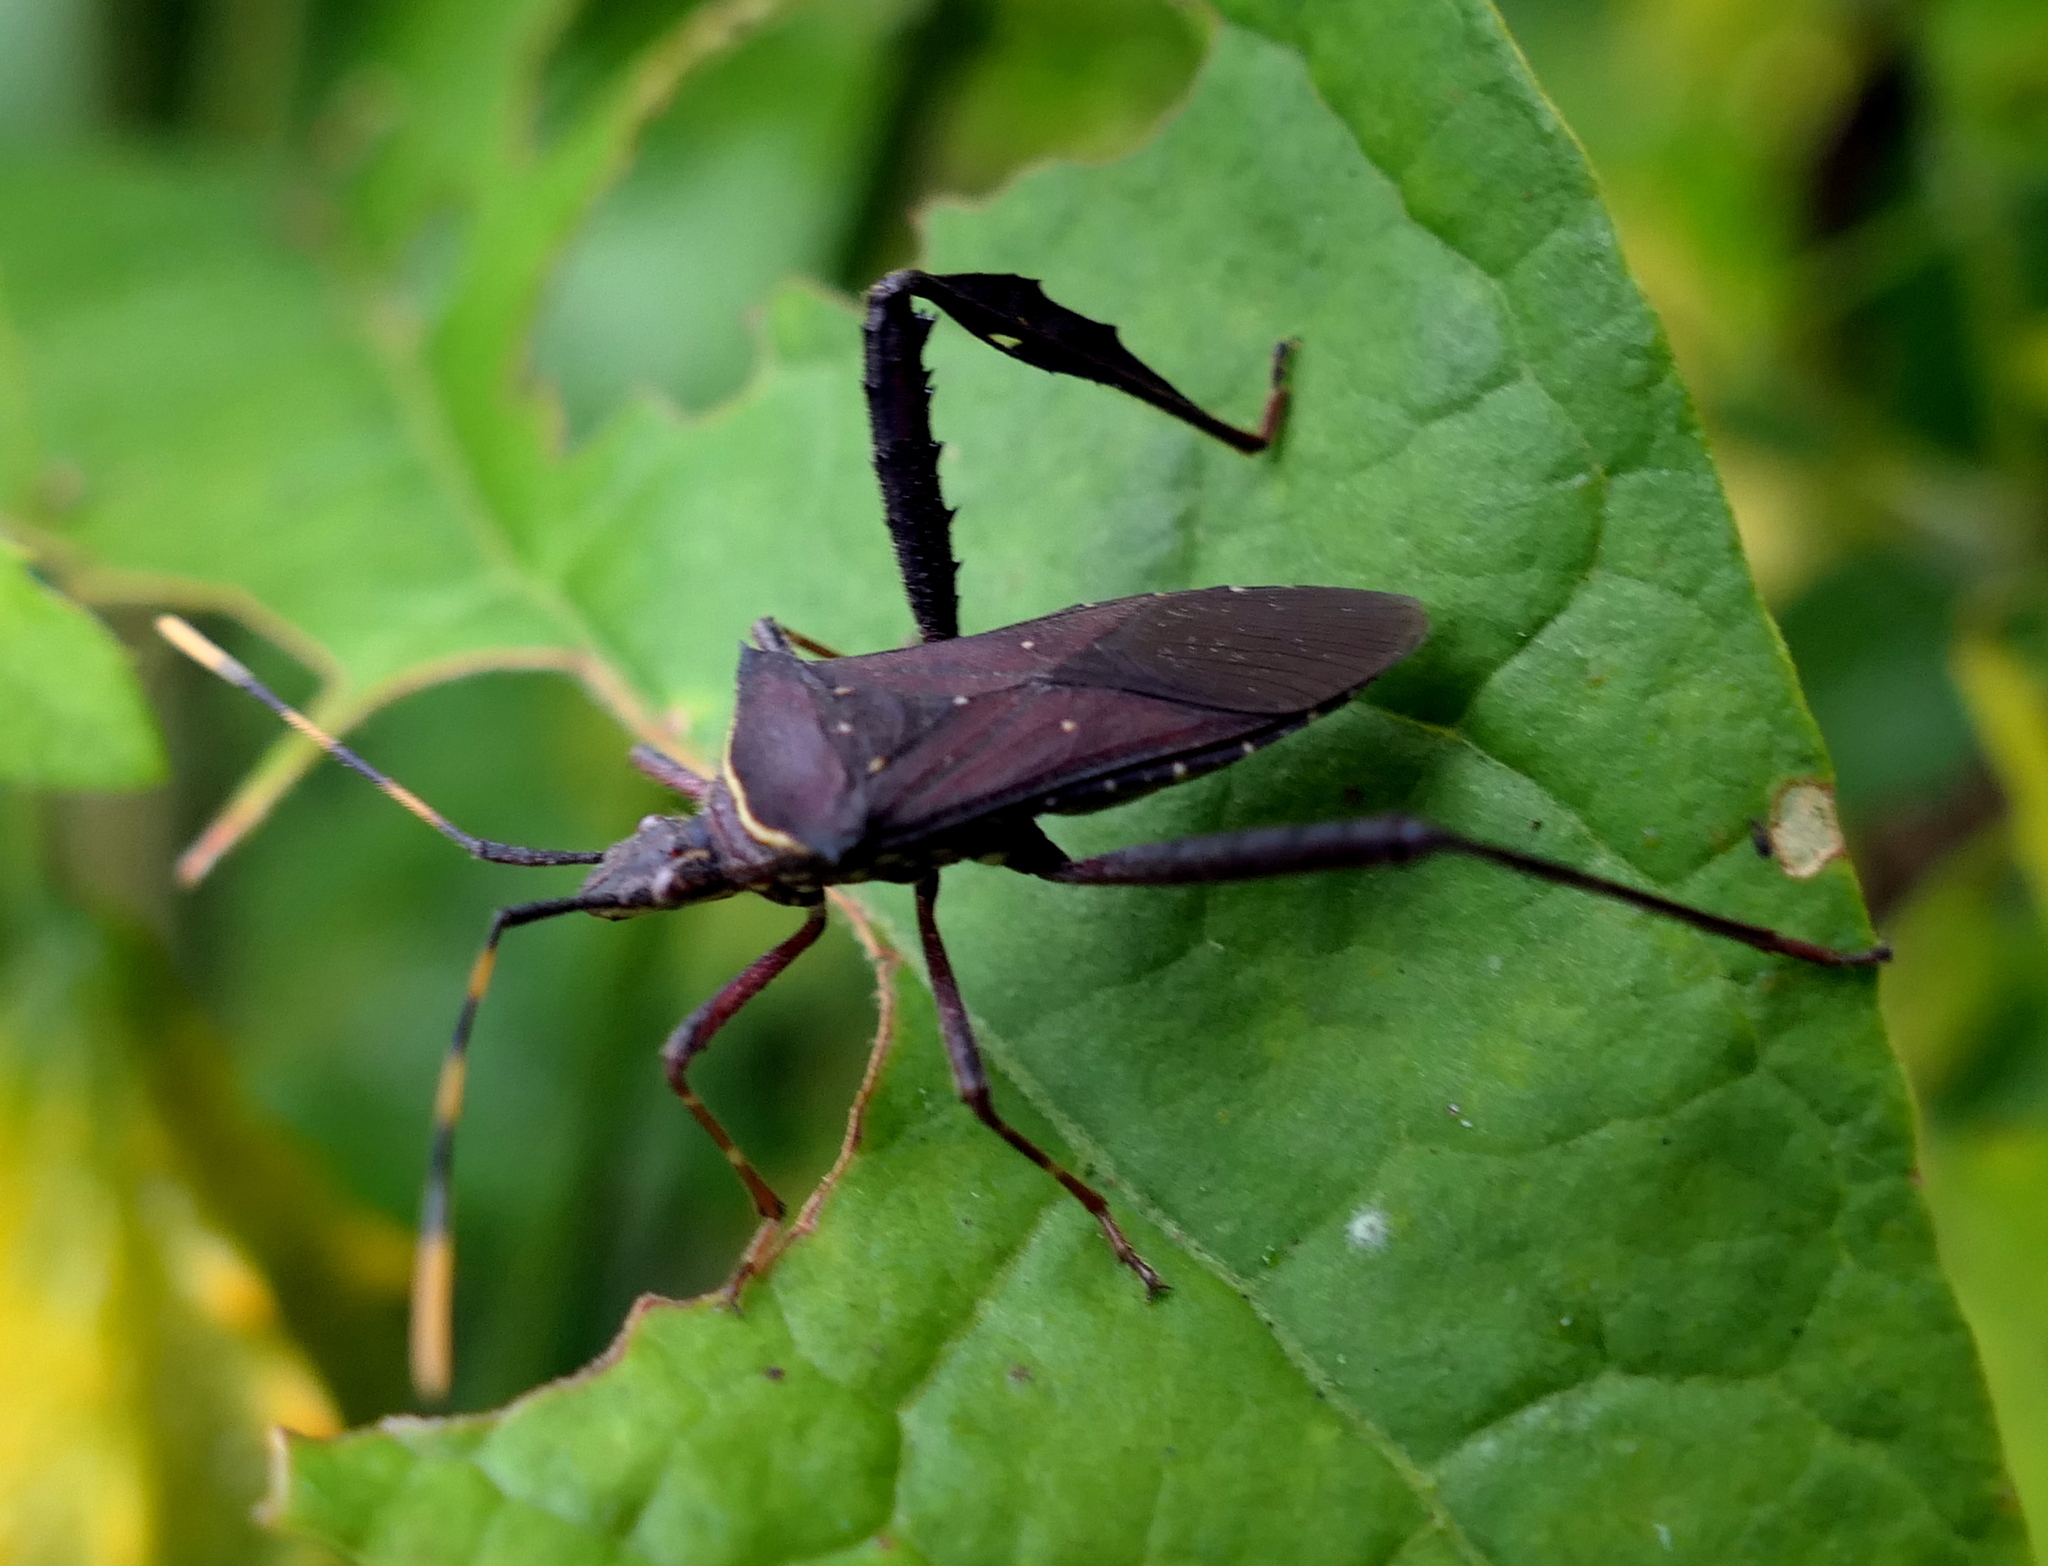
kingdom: Animalia
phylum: Arthropoda
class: Insecta
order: Hemiptera
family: Coreidae
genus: Leptoglossus
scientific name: Leptoglossus gonagra
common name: Citron bug
